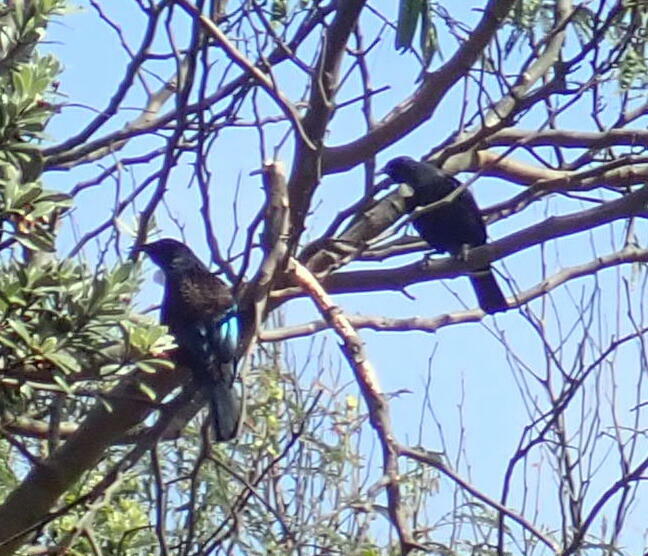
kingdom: Animalia
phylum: Chordata
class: Aves
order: Passeriformes
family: Meliphagidae
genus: Prosthemadera
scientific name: Prosthemadera novaeseelandiae
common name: Tui
